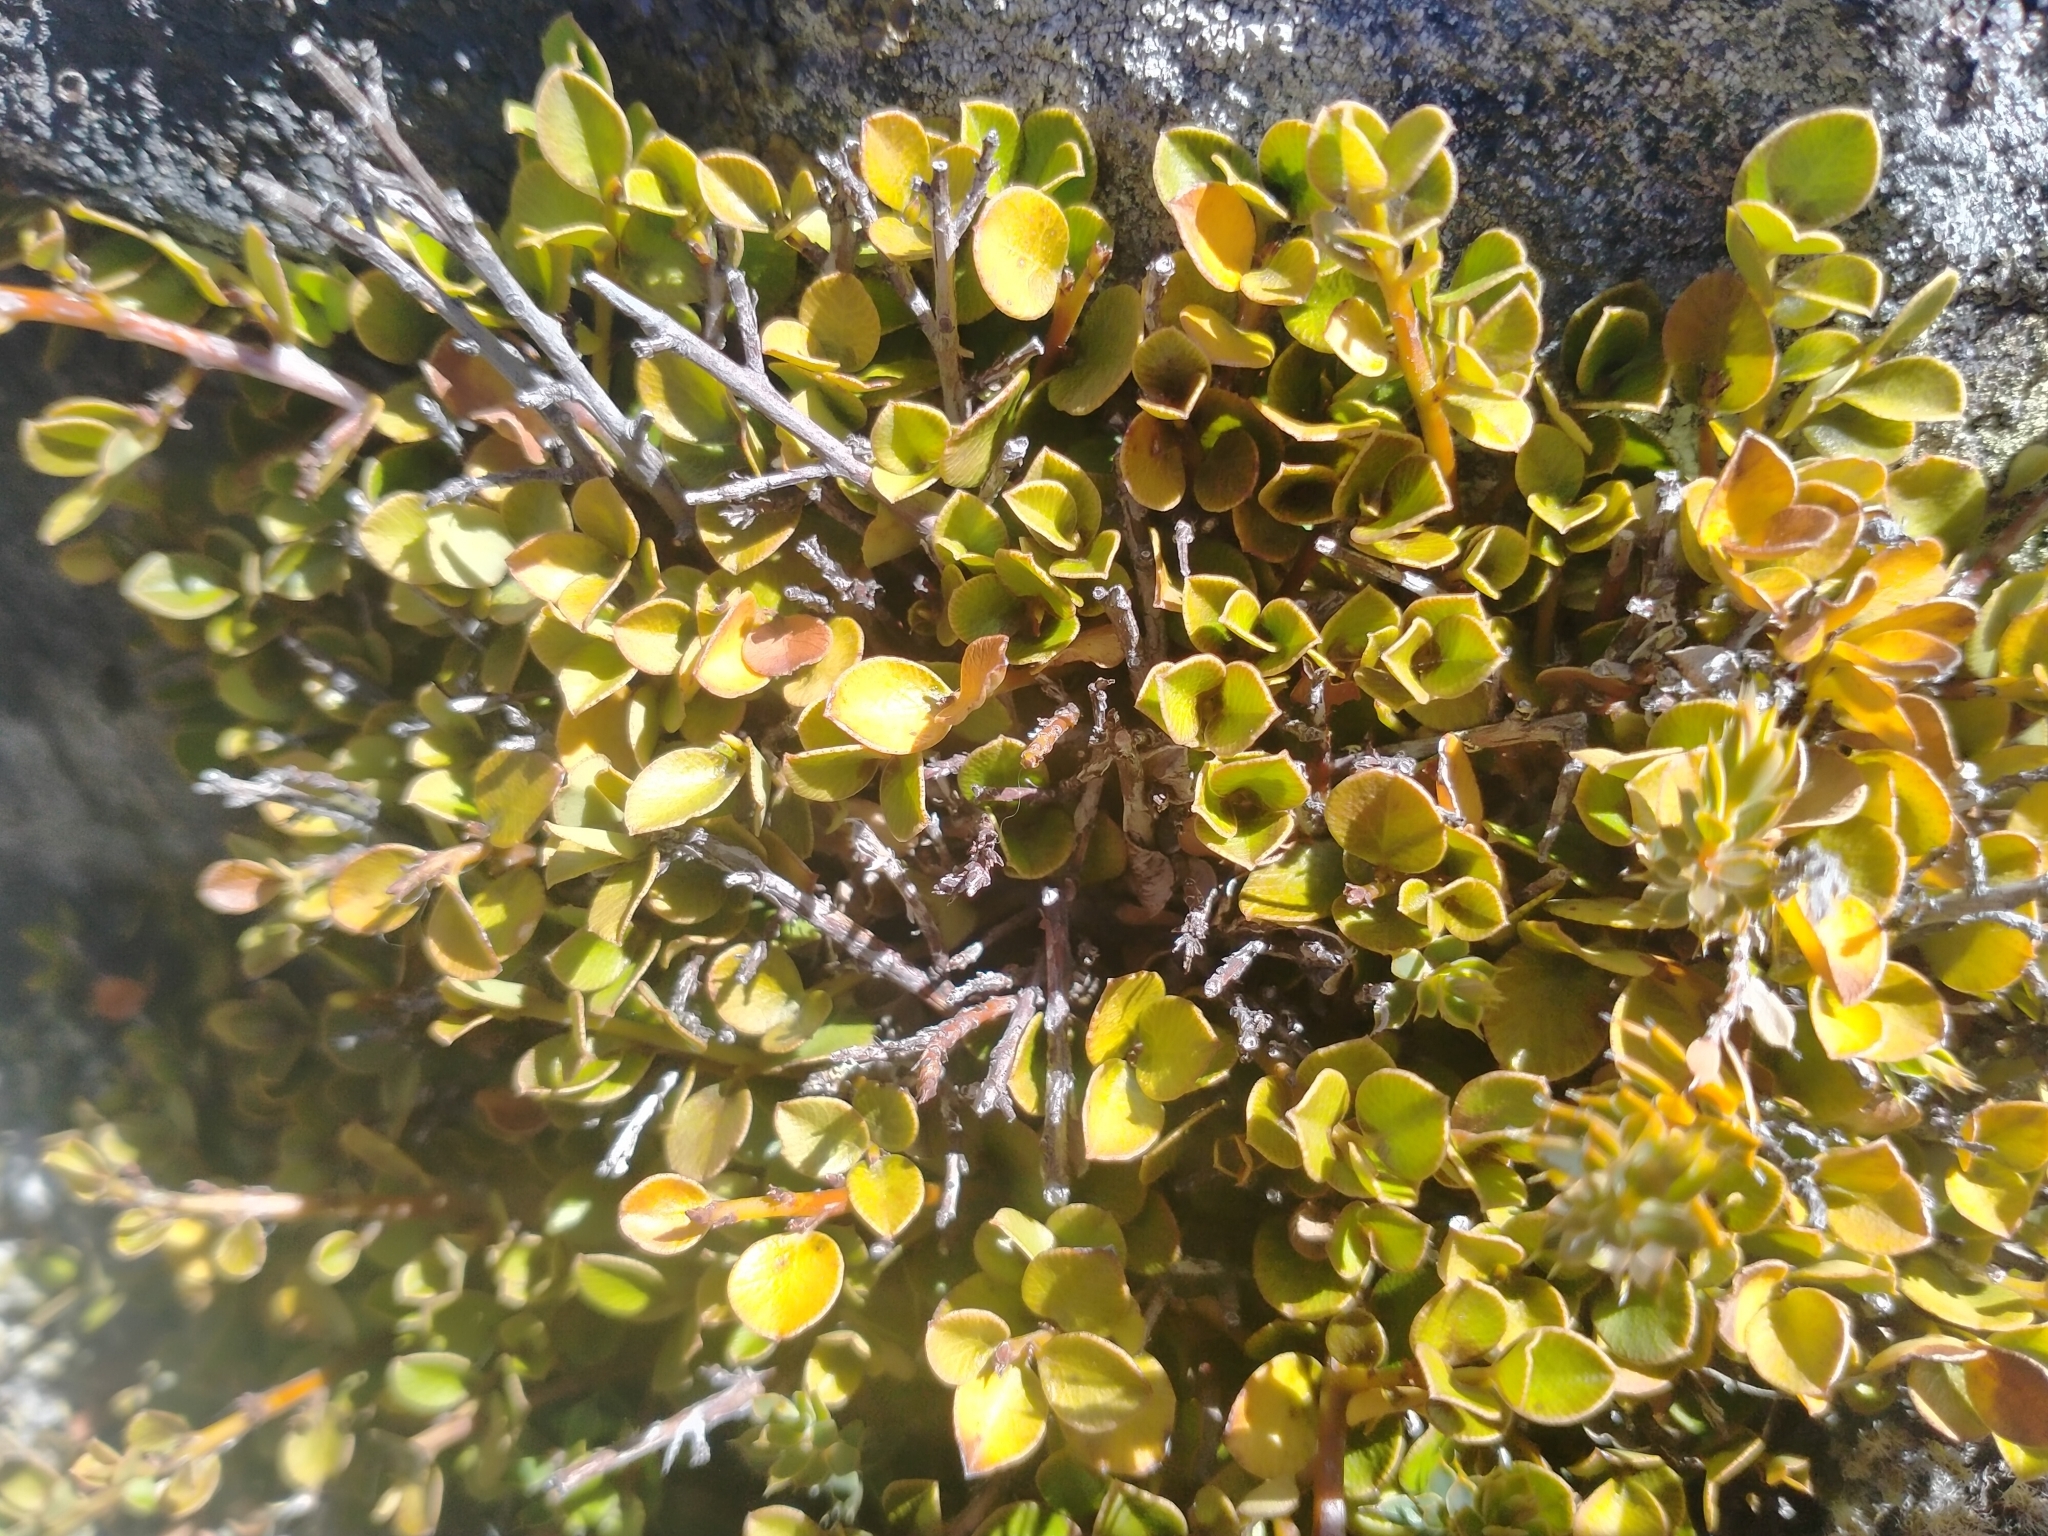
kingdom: Plantae
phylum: Tracheophyta
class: Magnoliopsida
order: Ericales
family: Primulaceae
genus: Myrsine
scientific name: Myrsine nummularia
